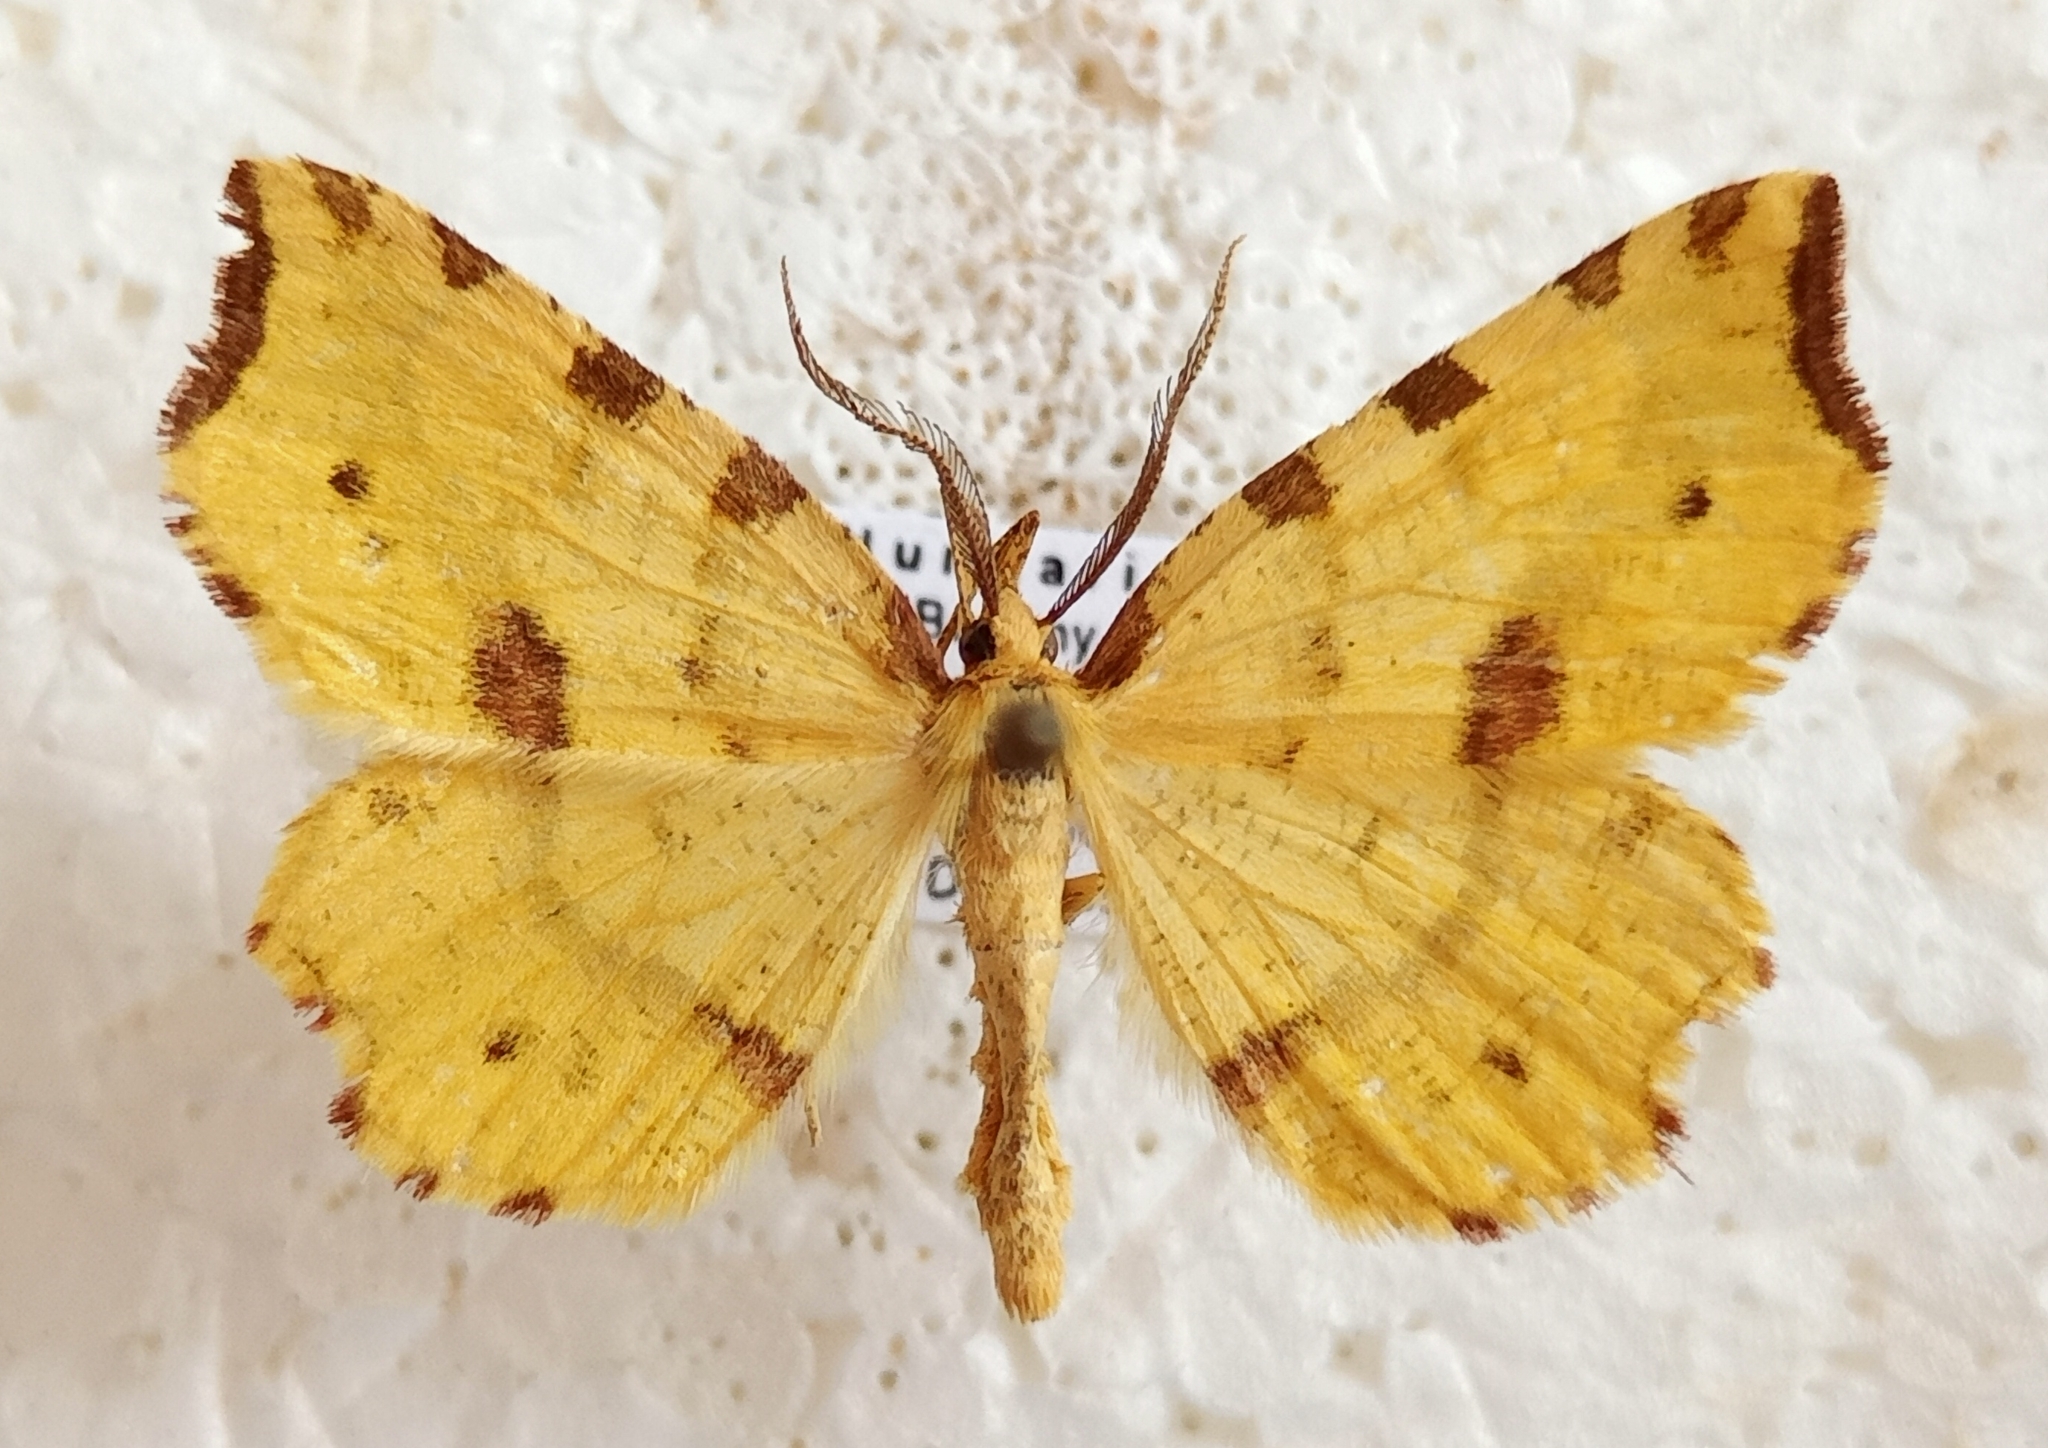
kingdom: Animalia
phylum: Arthropoda
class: Insecta
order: Lepidoptera
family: Geometridae
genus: Therapis
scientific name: Therapis flavicaria
